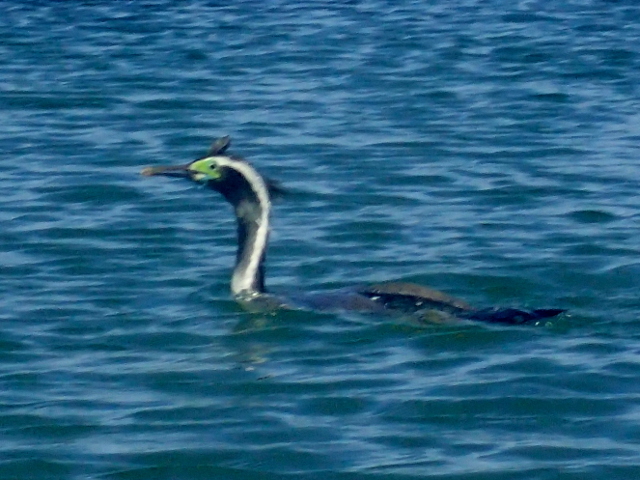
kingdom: Animalia
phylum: Chordata
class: Aves
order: Suliformes
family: Phalacrocoracidae
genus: Phalacrocorax
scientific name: Phalacrocorax punctatus
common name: Spotted shag
